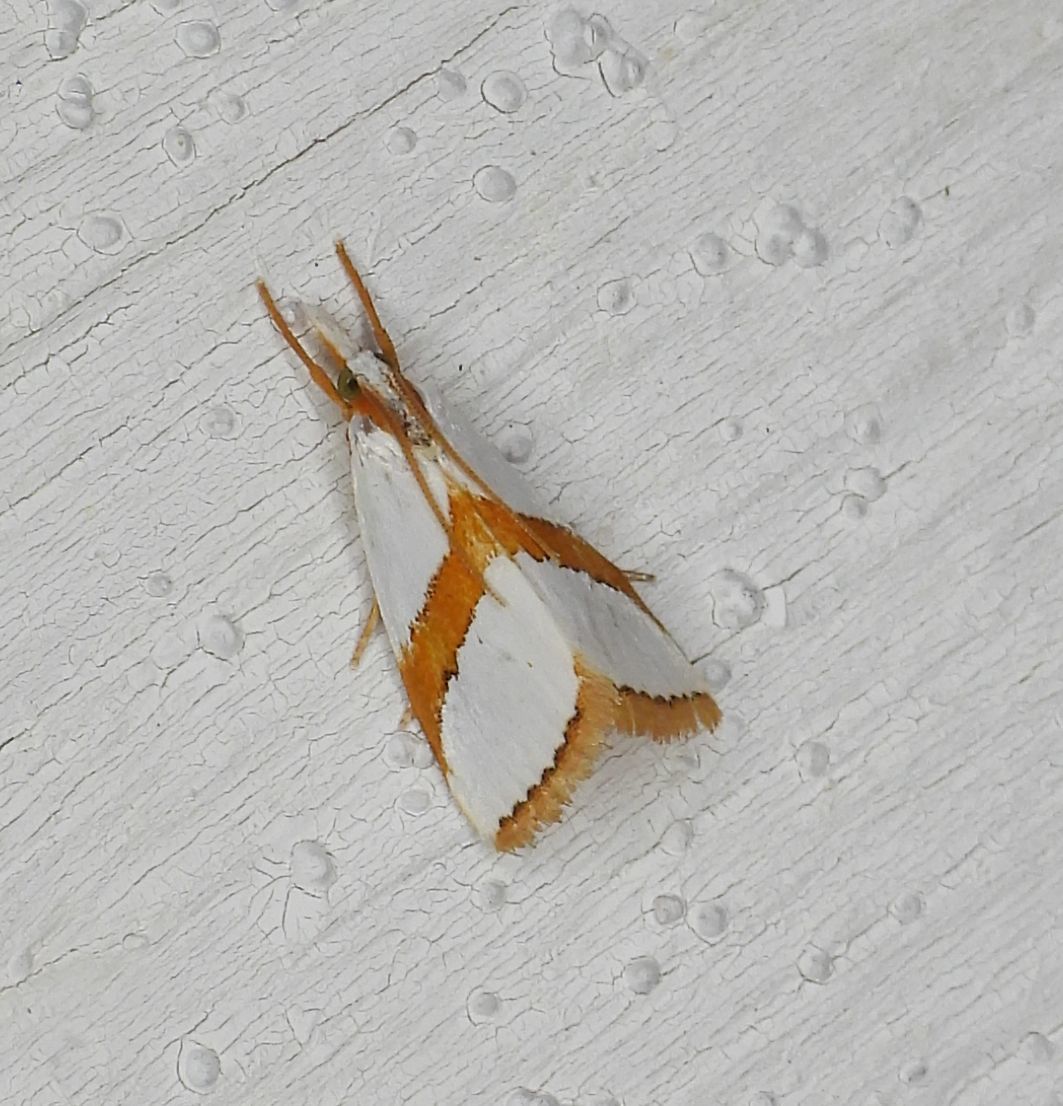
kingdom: Animalia
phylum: Arthropoda
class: Insecta
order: Lepidoptera
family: Crambidae
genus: Vaxi
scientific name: Vaxi critica
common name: Straight-lined vaxi moth
